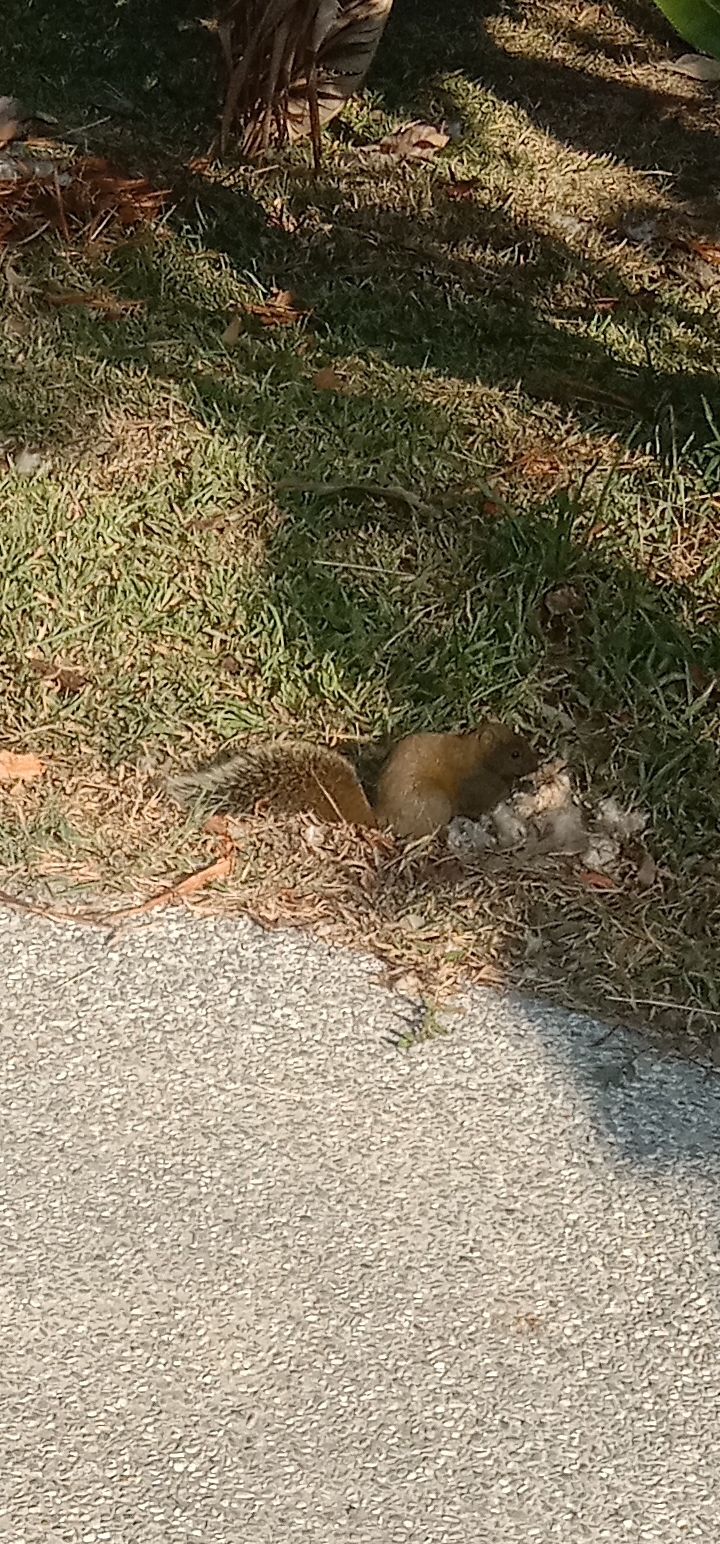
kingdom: Animalia
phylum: Chordata
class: Mammalia
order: Rodentia
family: Sciuridae
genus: Callosciurus
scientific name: Callosciurus erythraeus
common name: Pallas's squirrel
